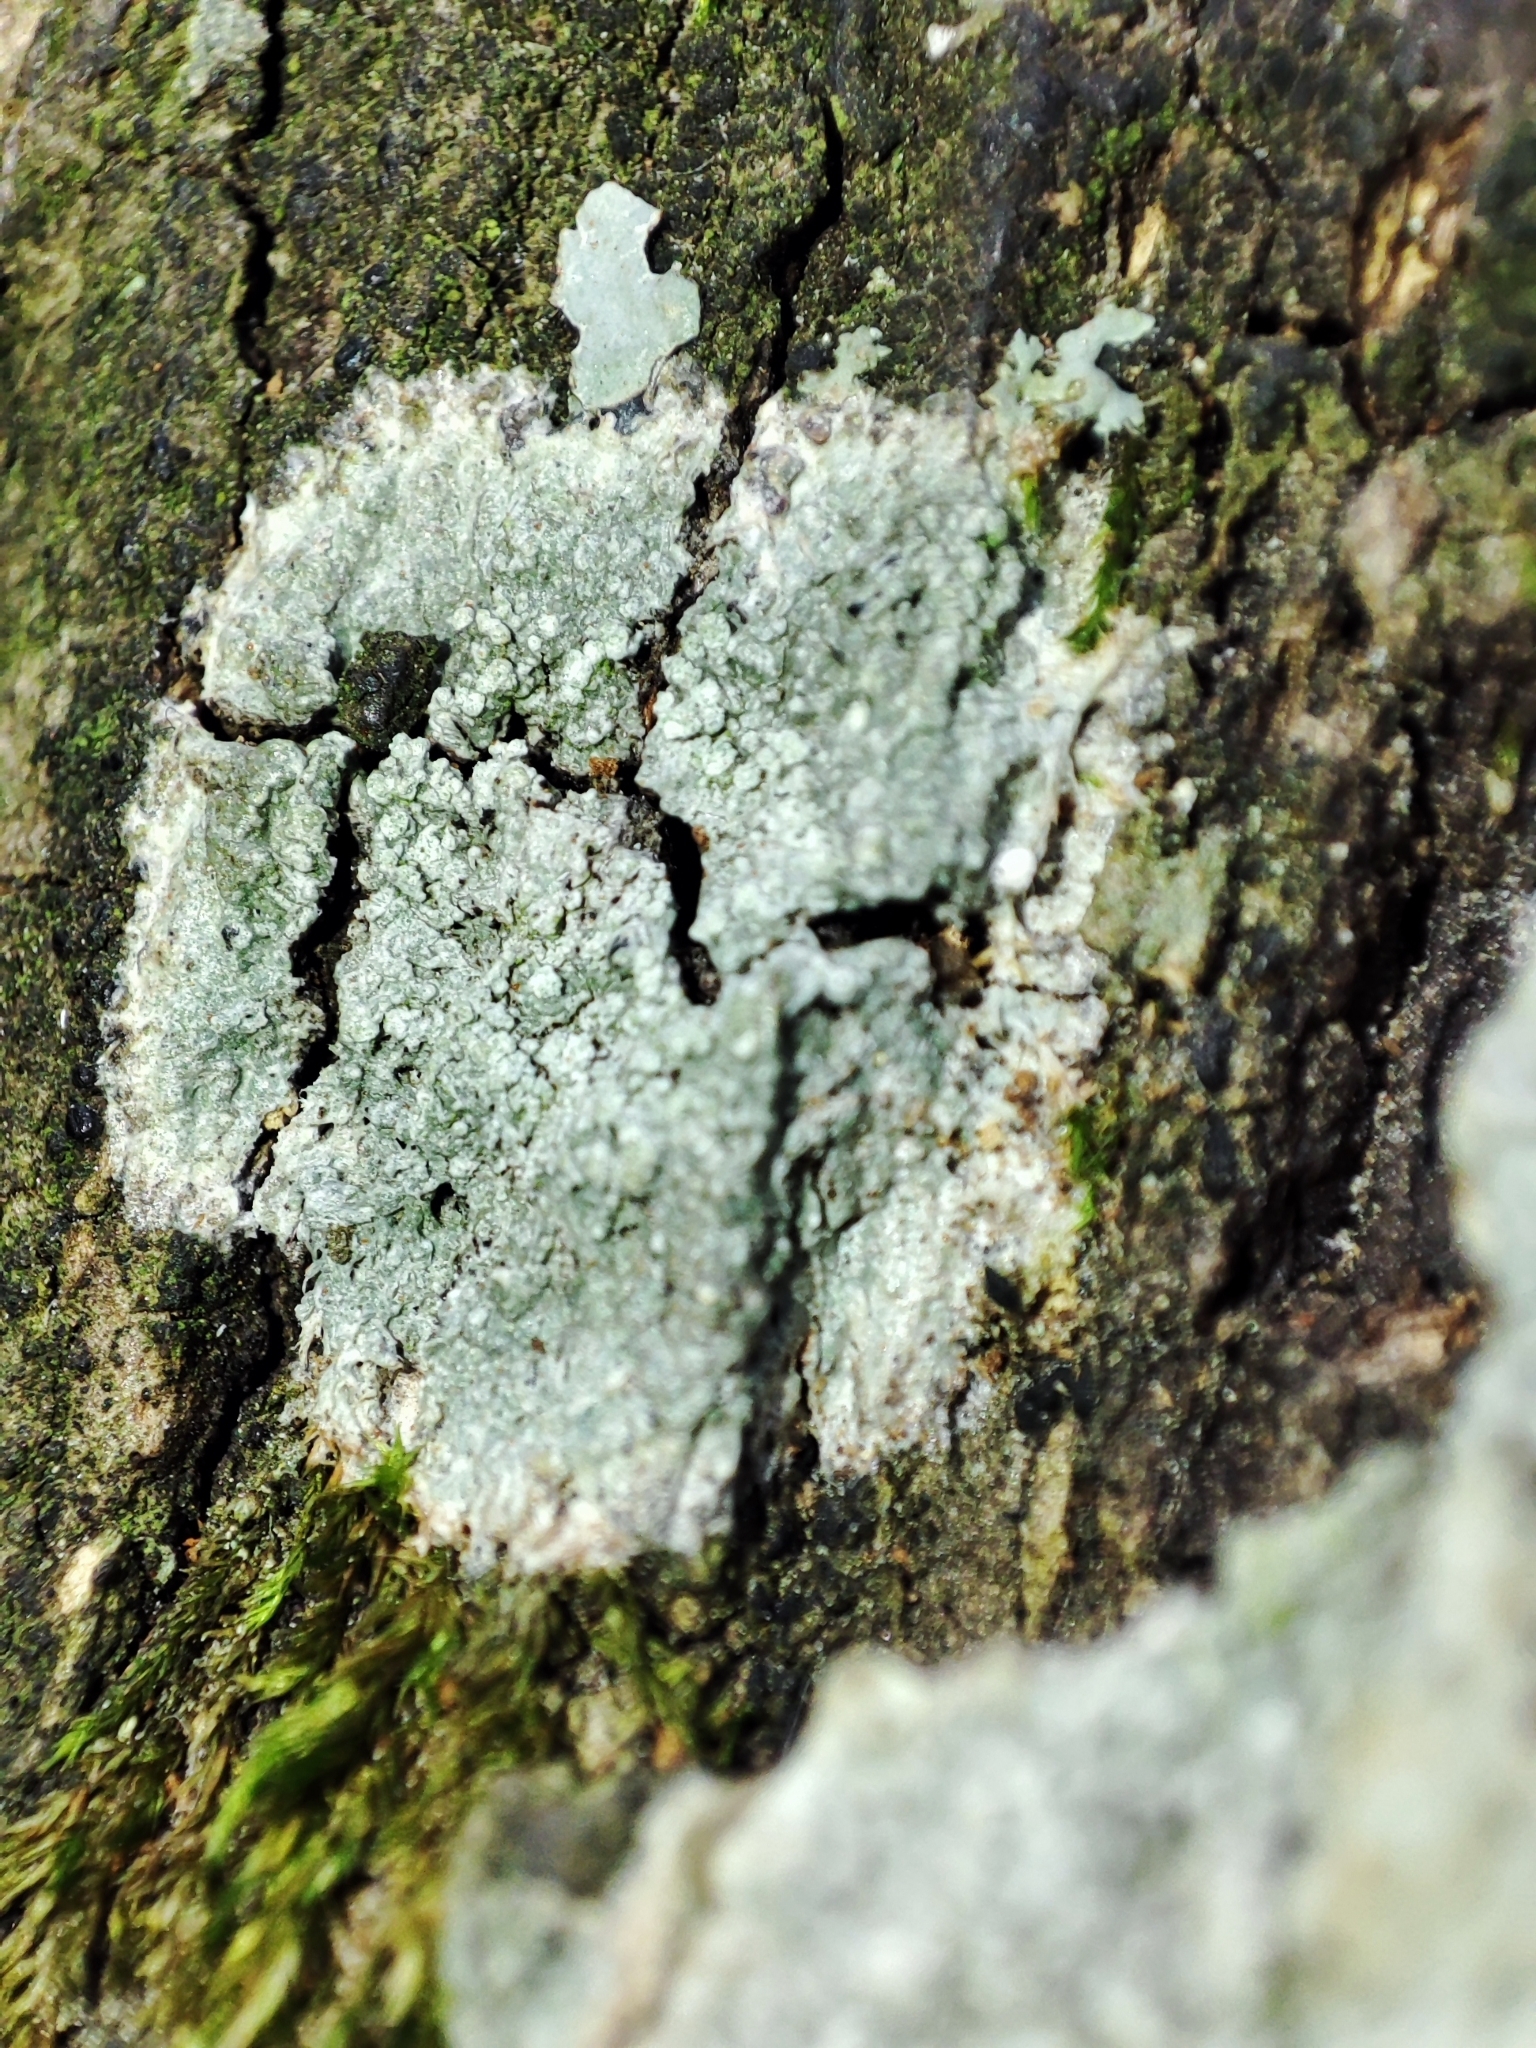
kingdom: Fungi
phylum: Ascomycota
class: Lecanoromycetes
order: Pertusariales
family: Pertusariaceae
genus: Lepra
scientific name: Lepra albescens
